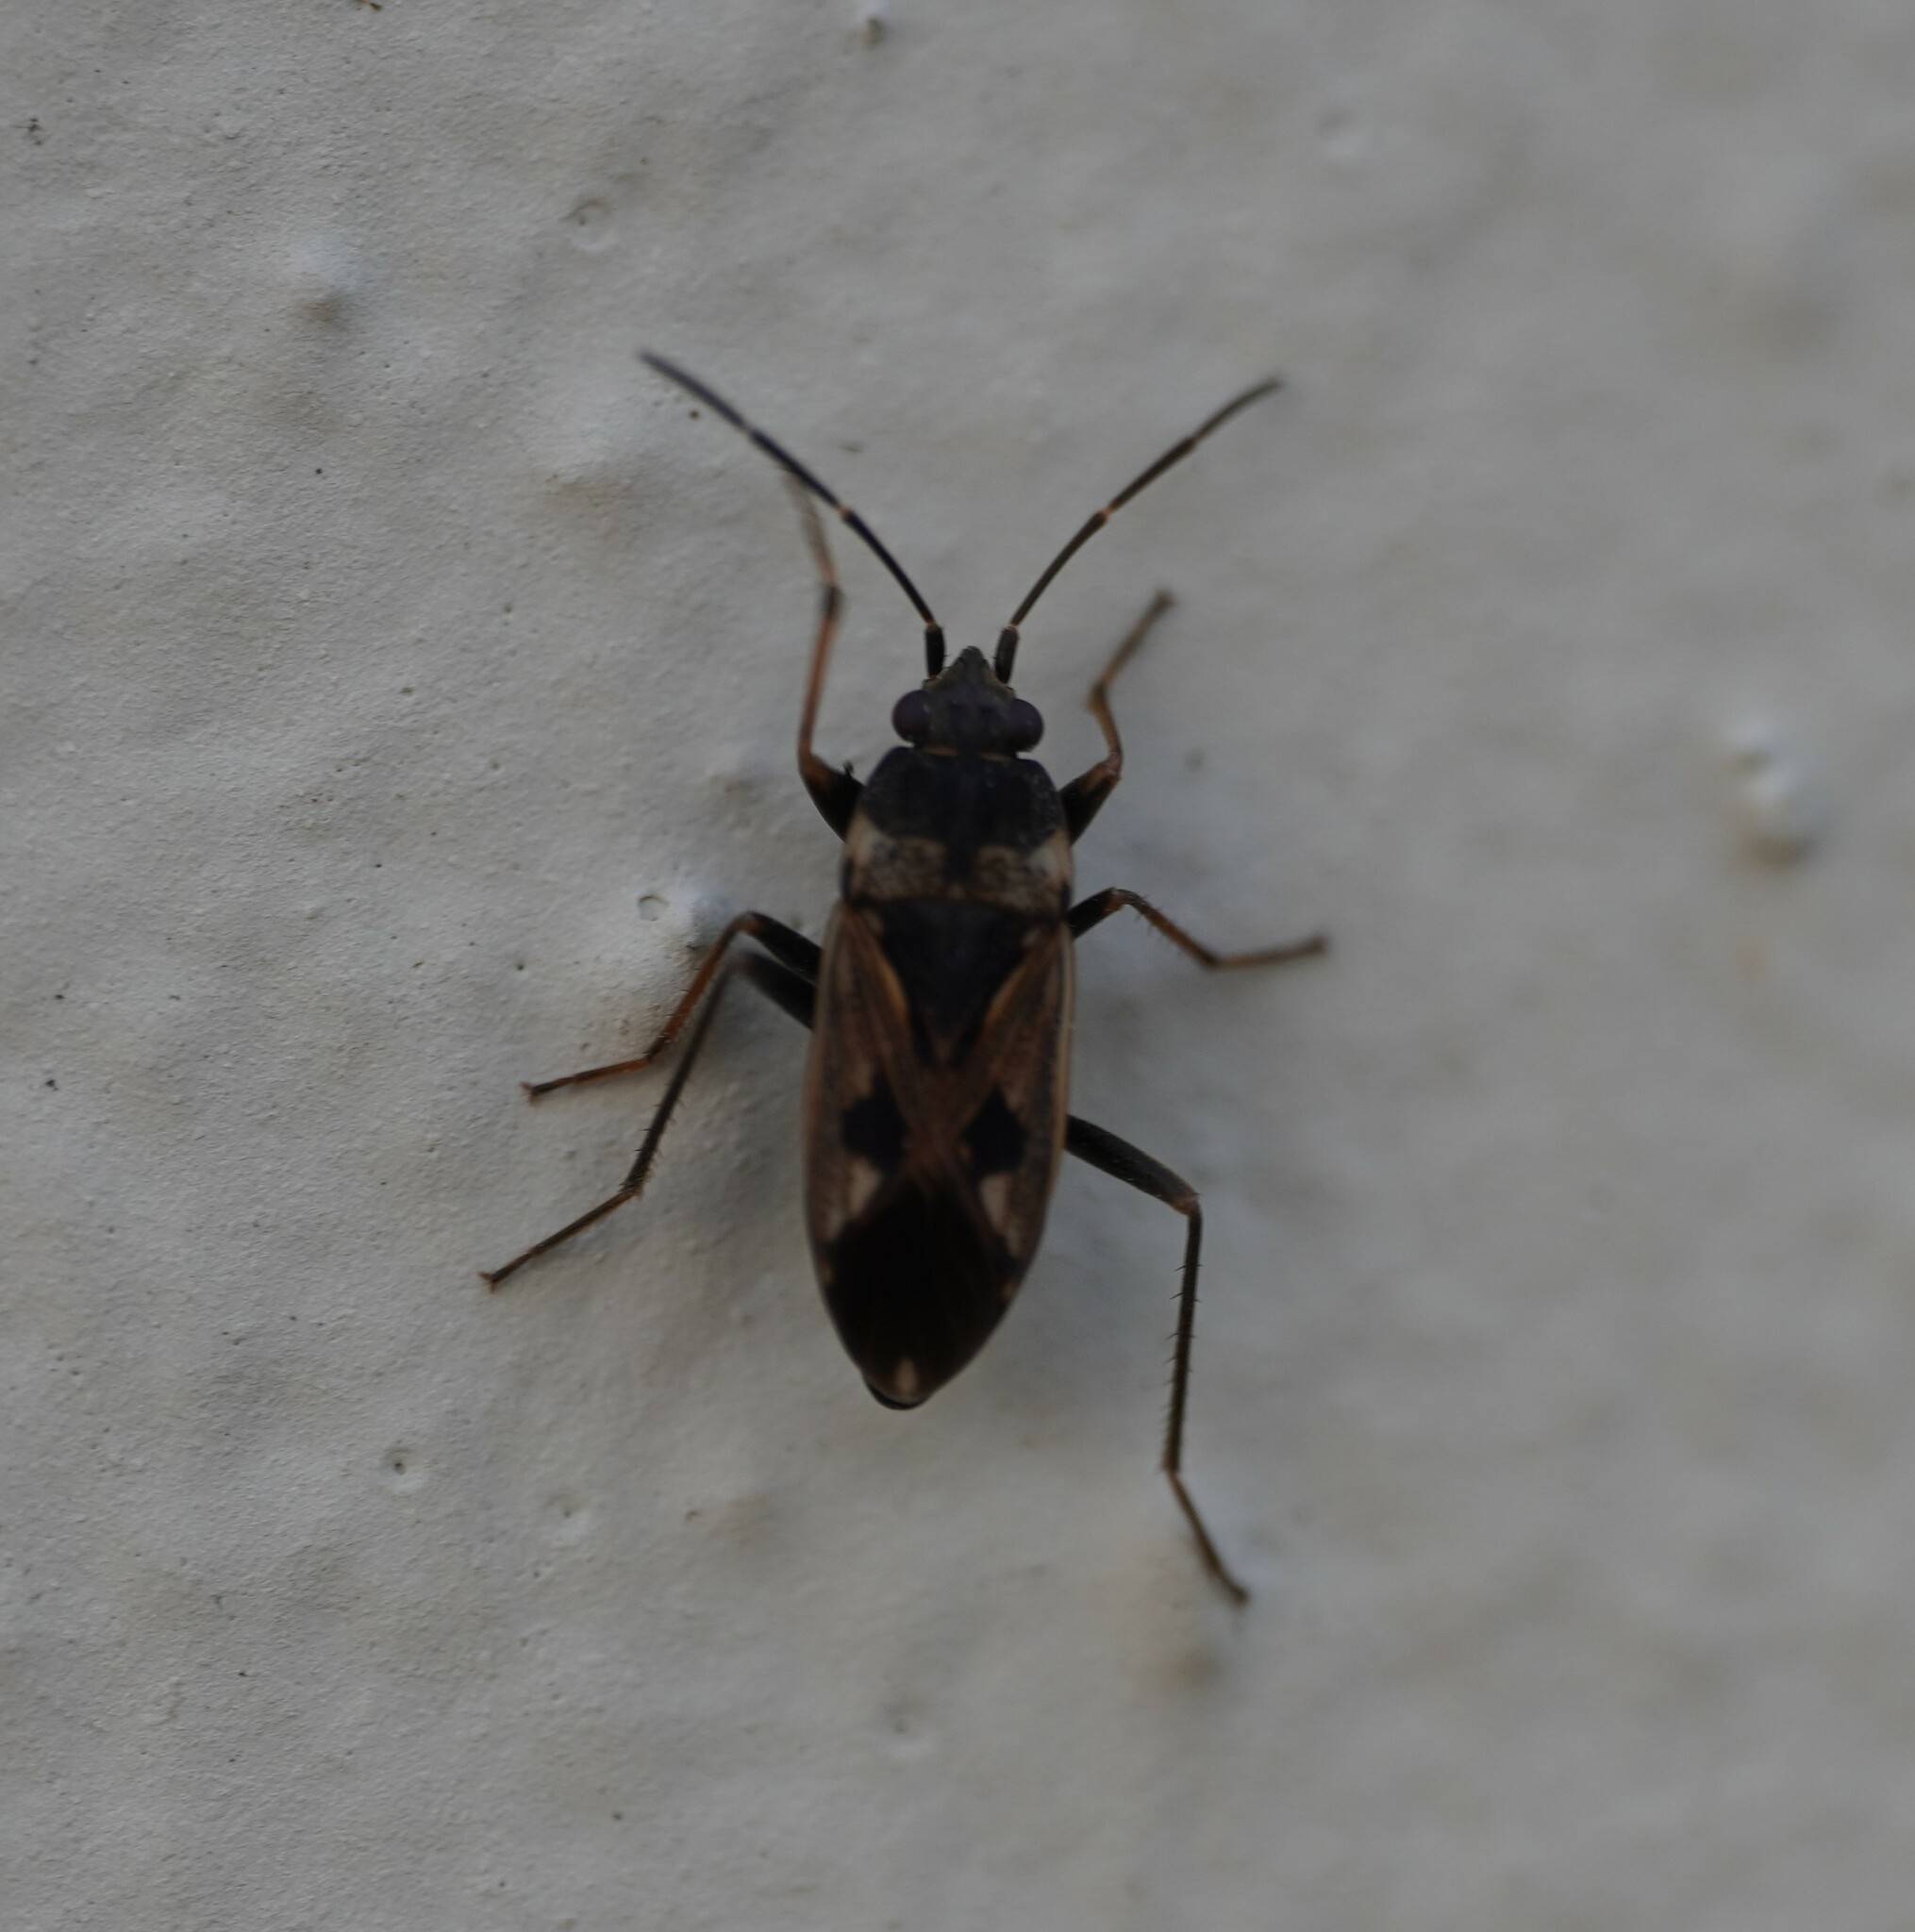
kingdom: Animalia
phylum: Arthropoda
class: Insecta
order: Hemiptera
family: Rhyparochromidae
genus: Rhyparochromus
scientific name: Rhyparochromus vulgaris
